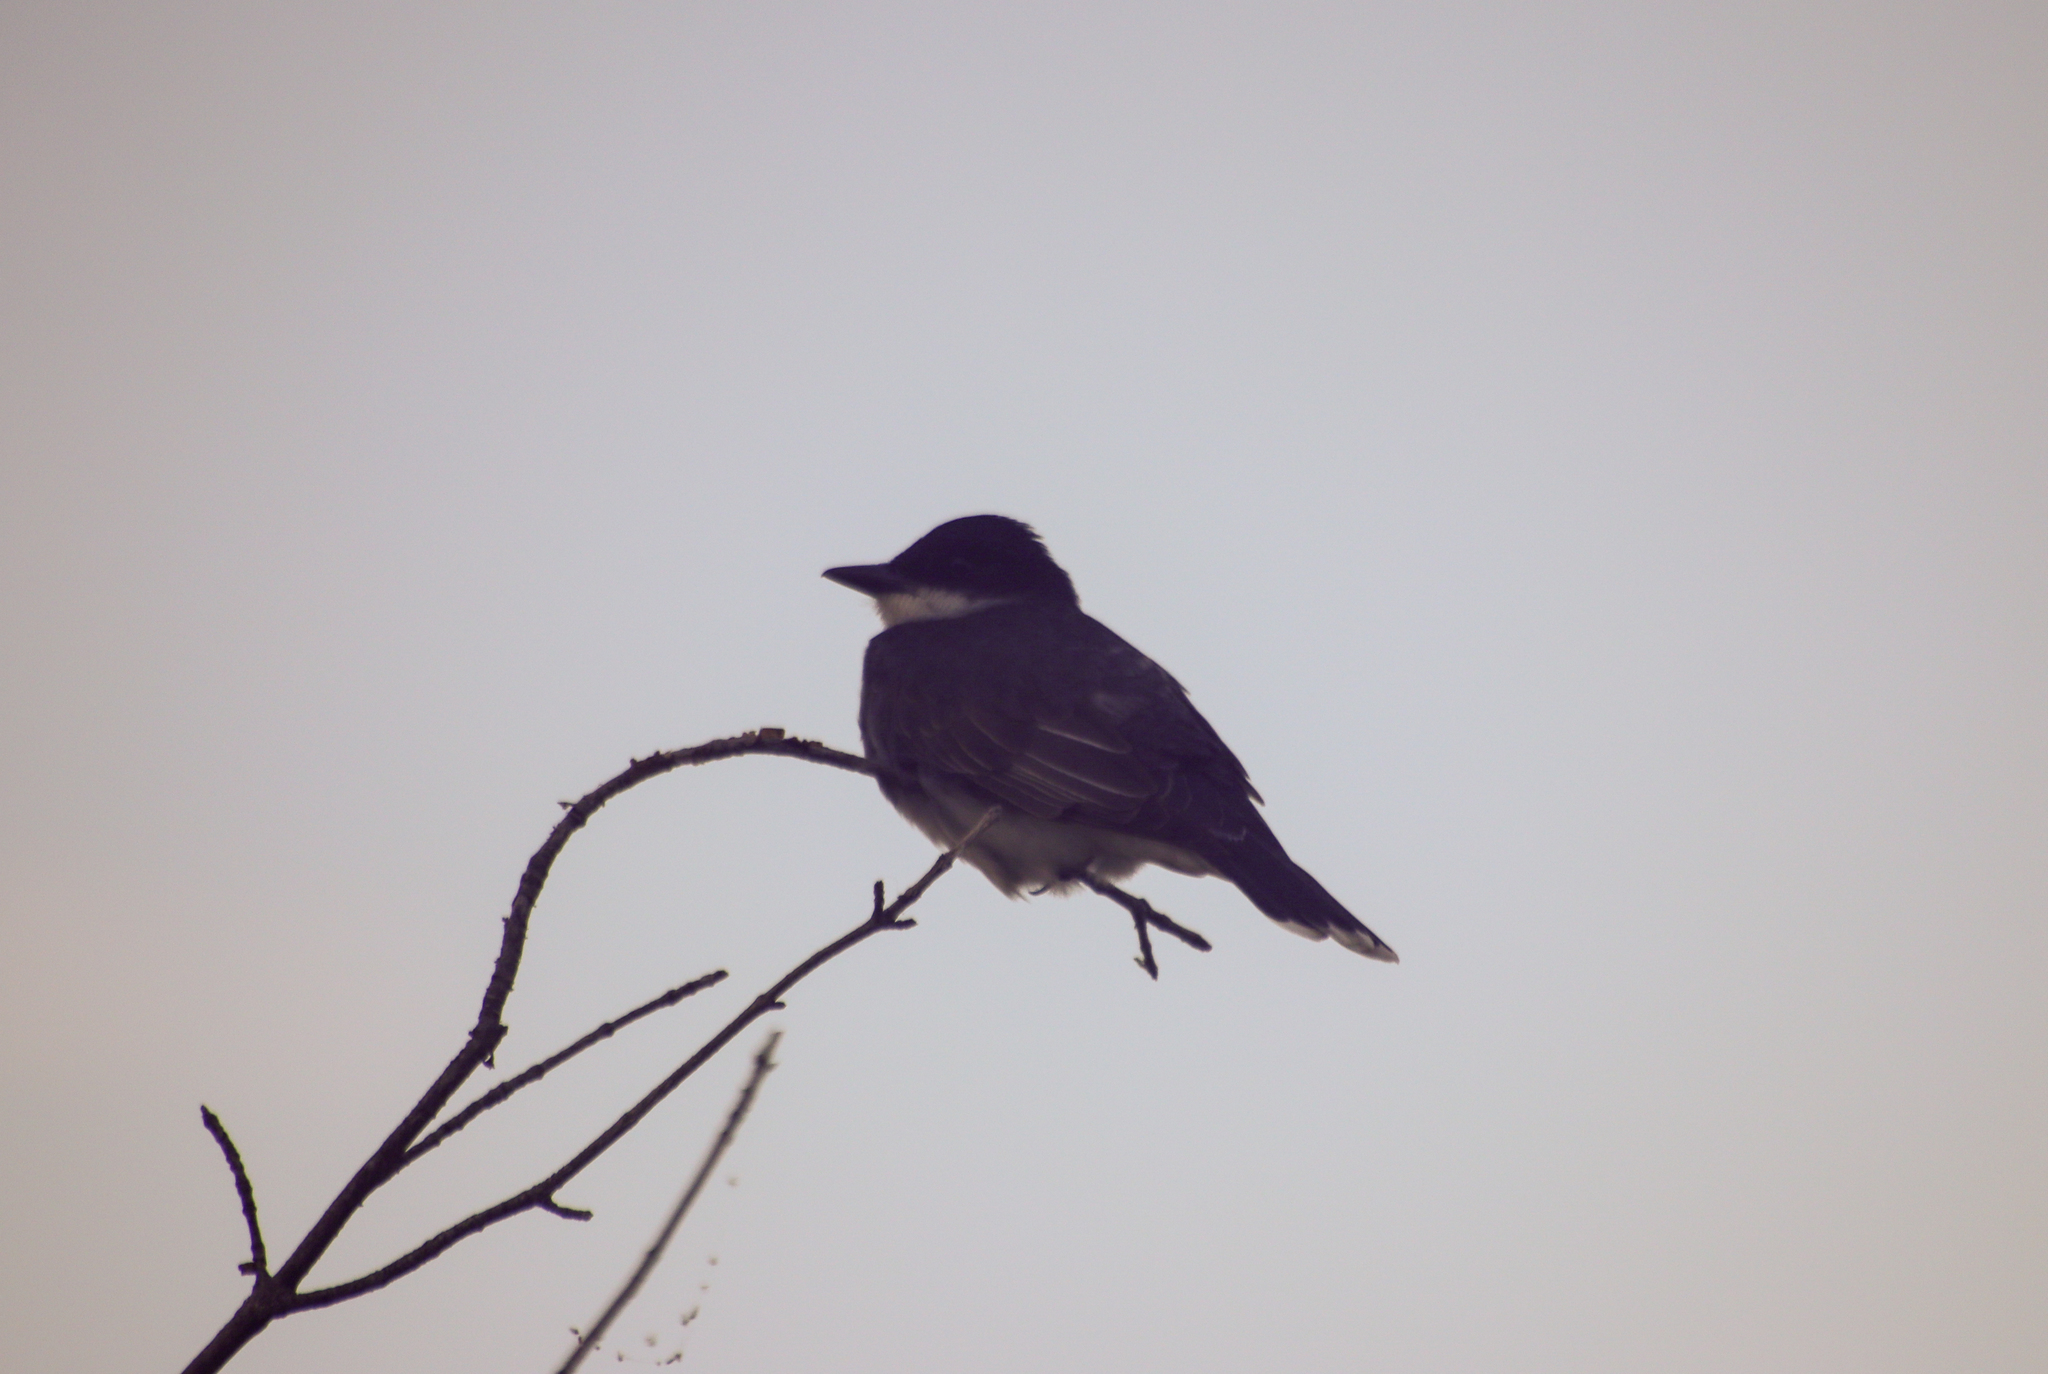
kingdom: Animalia
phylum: Chordata
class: Aves
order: Passeriformes
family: Tyrannidae
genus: Tyrannus
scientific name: Tyrannus tyrannus
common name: Eastern kingbird
